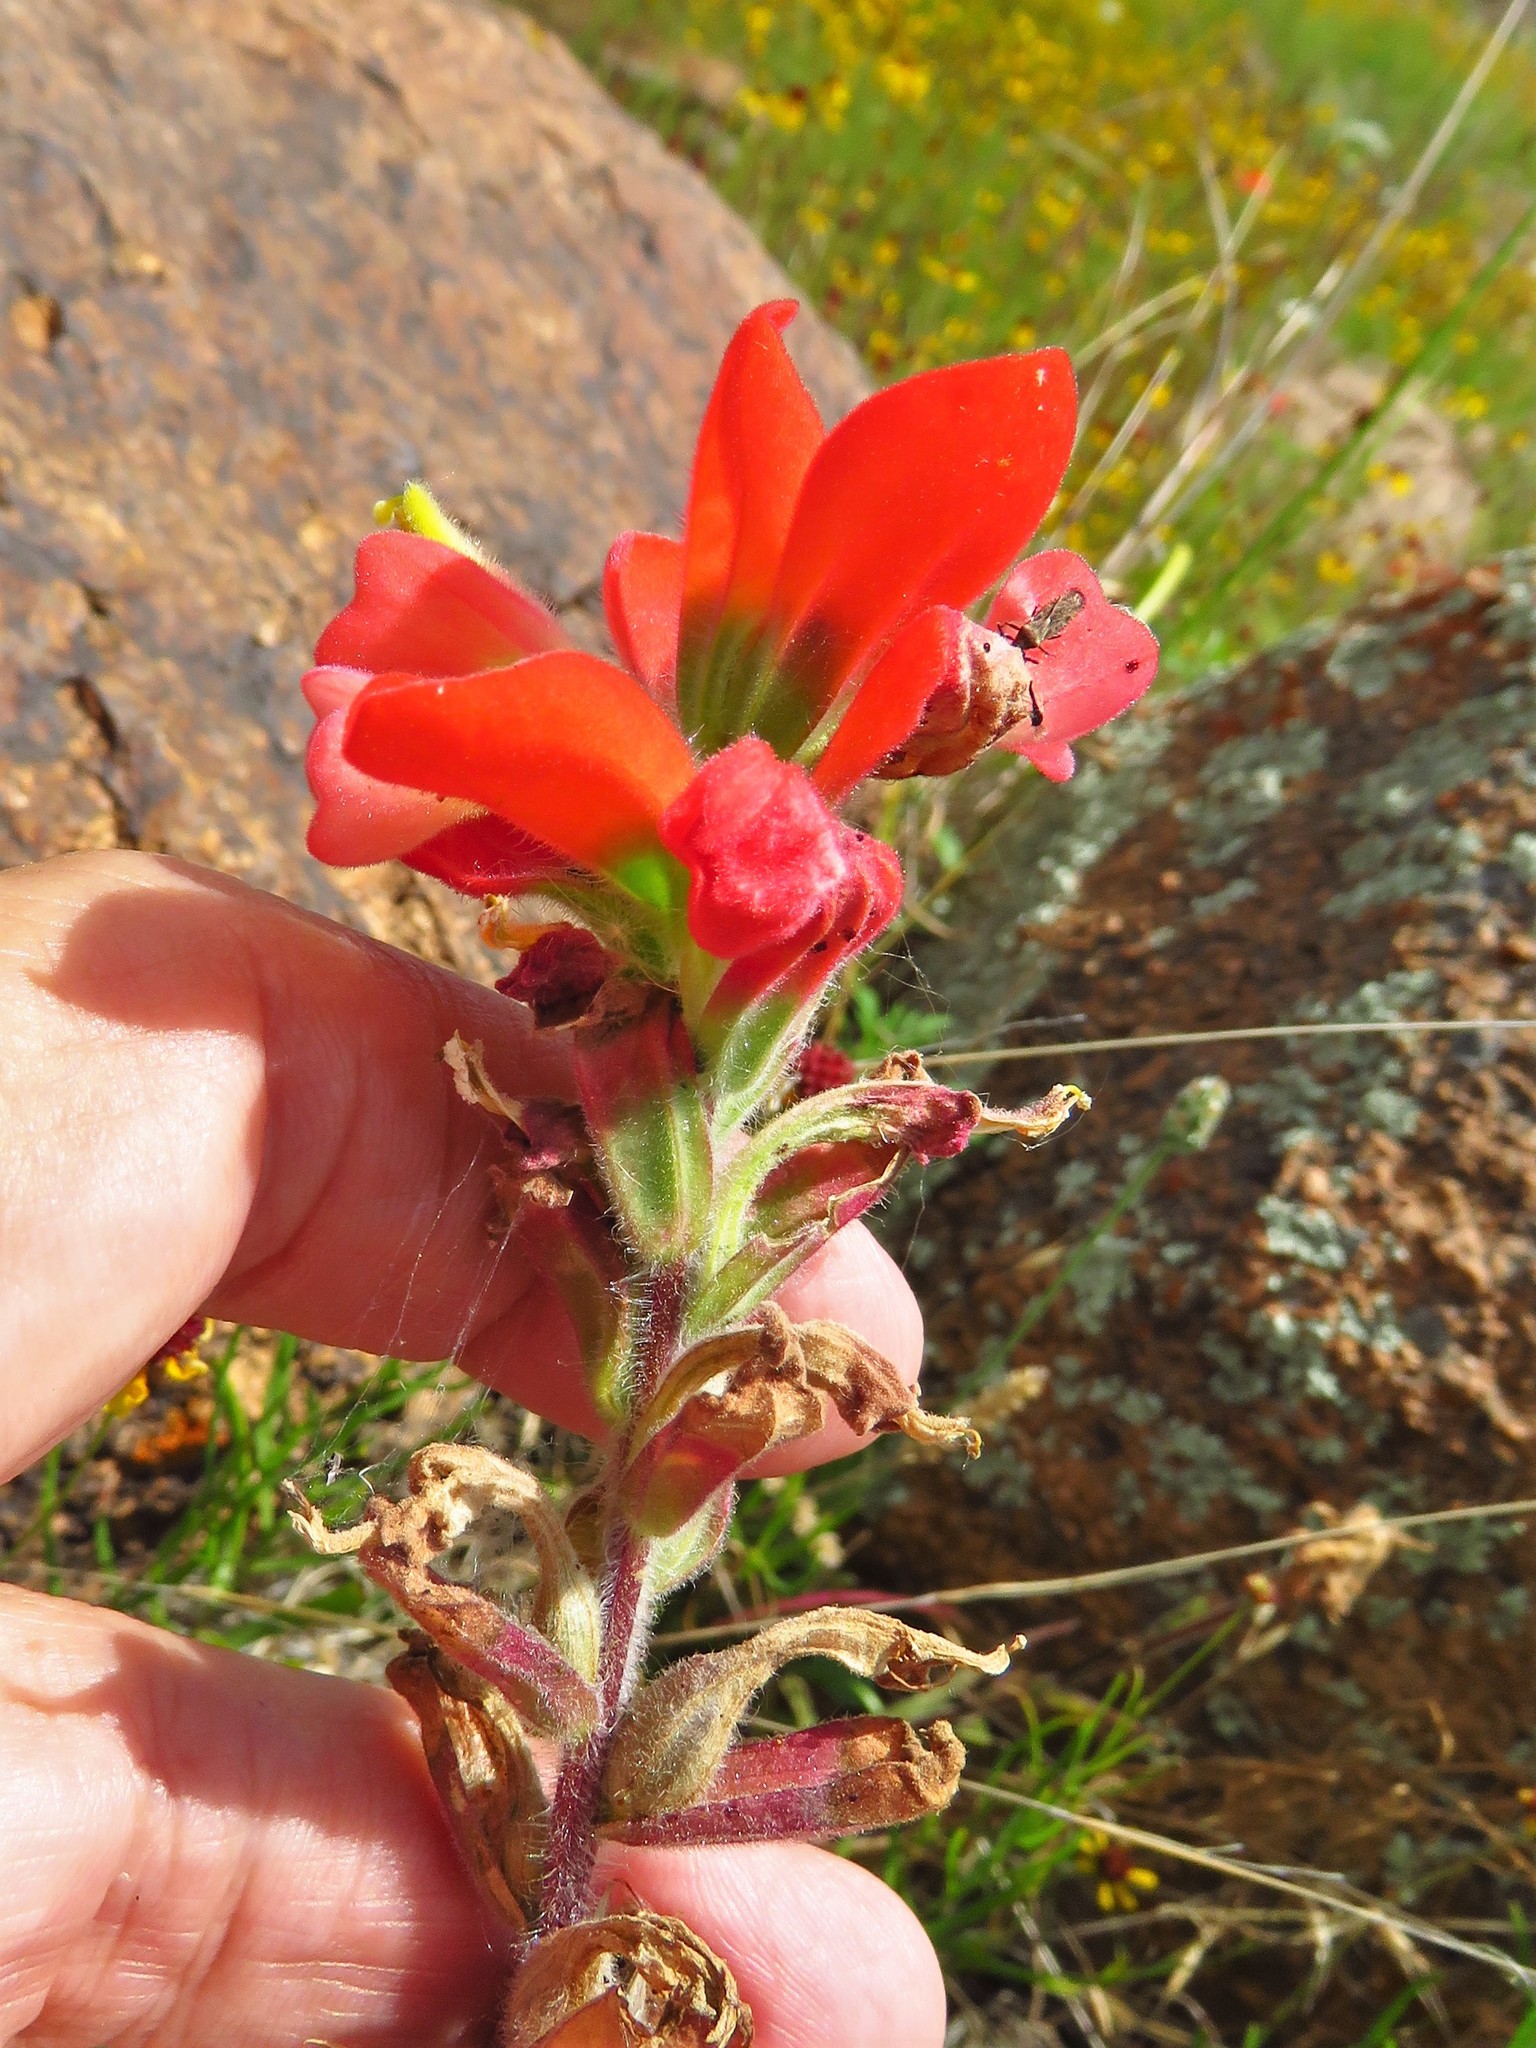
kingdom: Plantae
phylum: Tracheophyta
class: Magnoliopsida
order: Lamiales
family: Orobanchaceae
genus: Castilleja
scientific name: Castilleja indivisa
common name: Texas paintbrush
